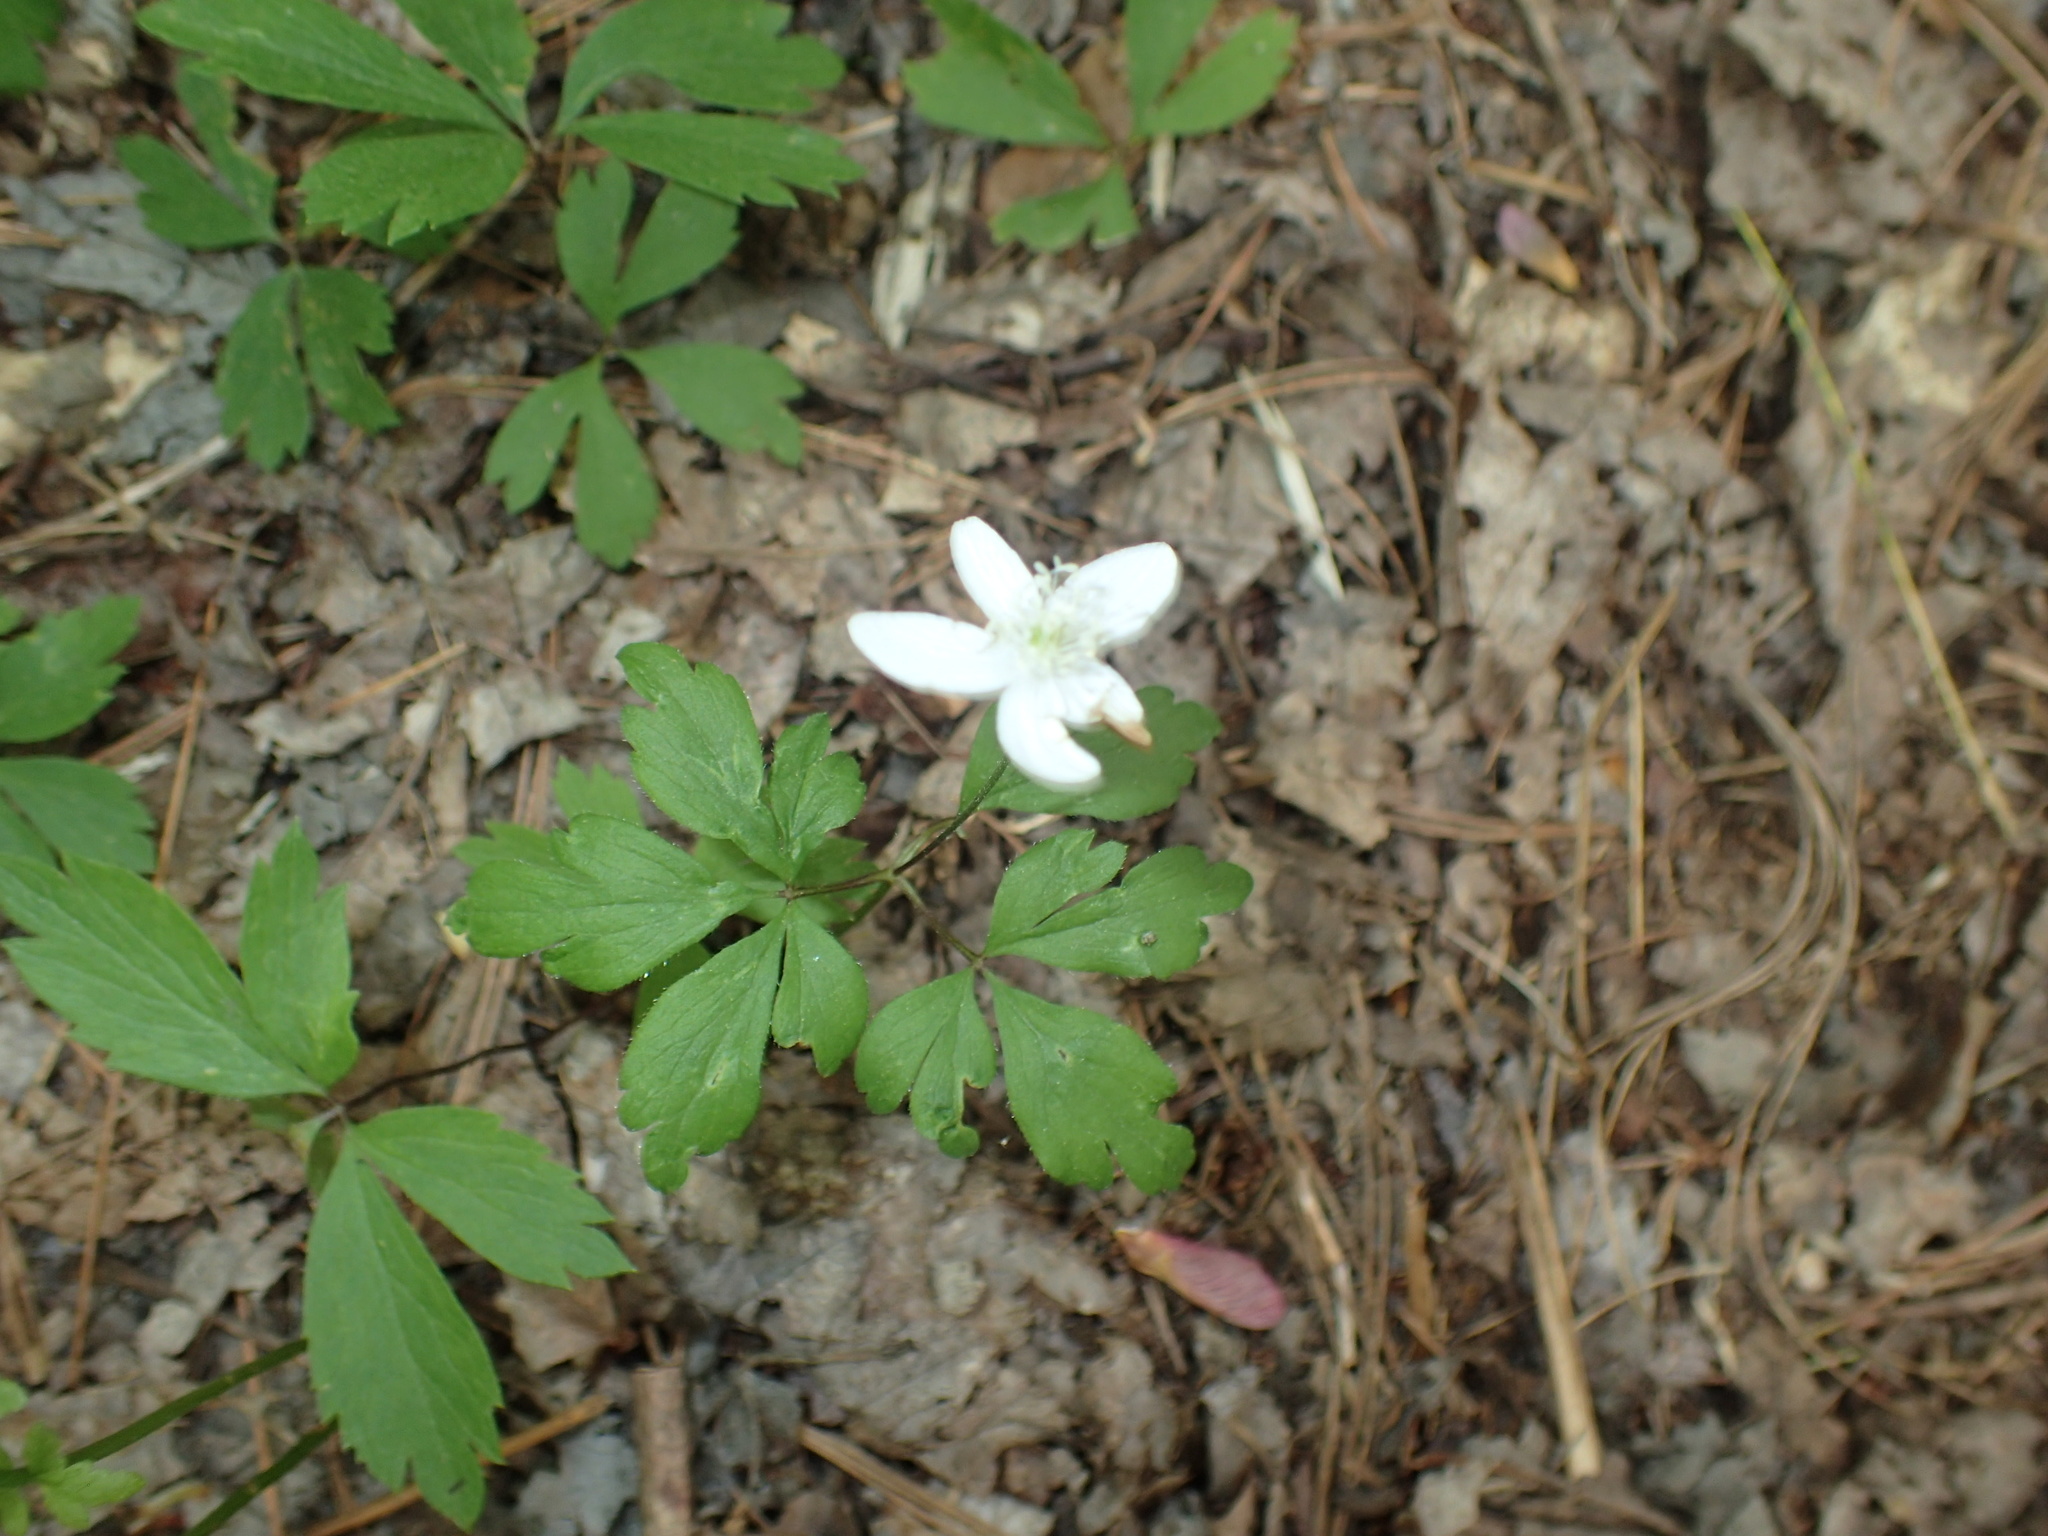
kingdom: Plantae
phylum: Tracheophyta
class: Magnoliopsida
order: Ranunculales
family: Ranunculaceae
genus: Anemone
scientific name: Anemone quinquefolia
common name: Wood anemone
